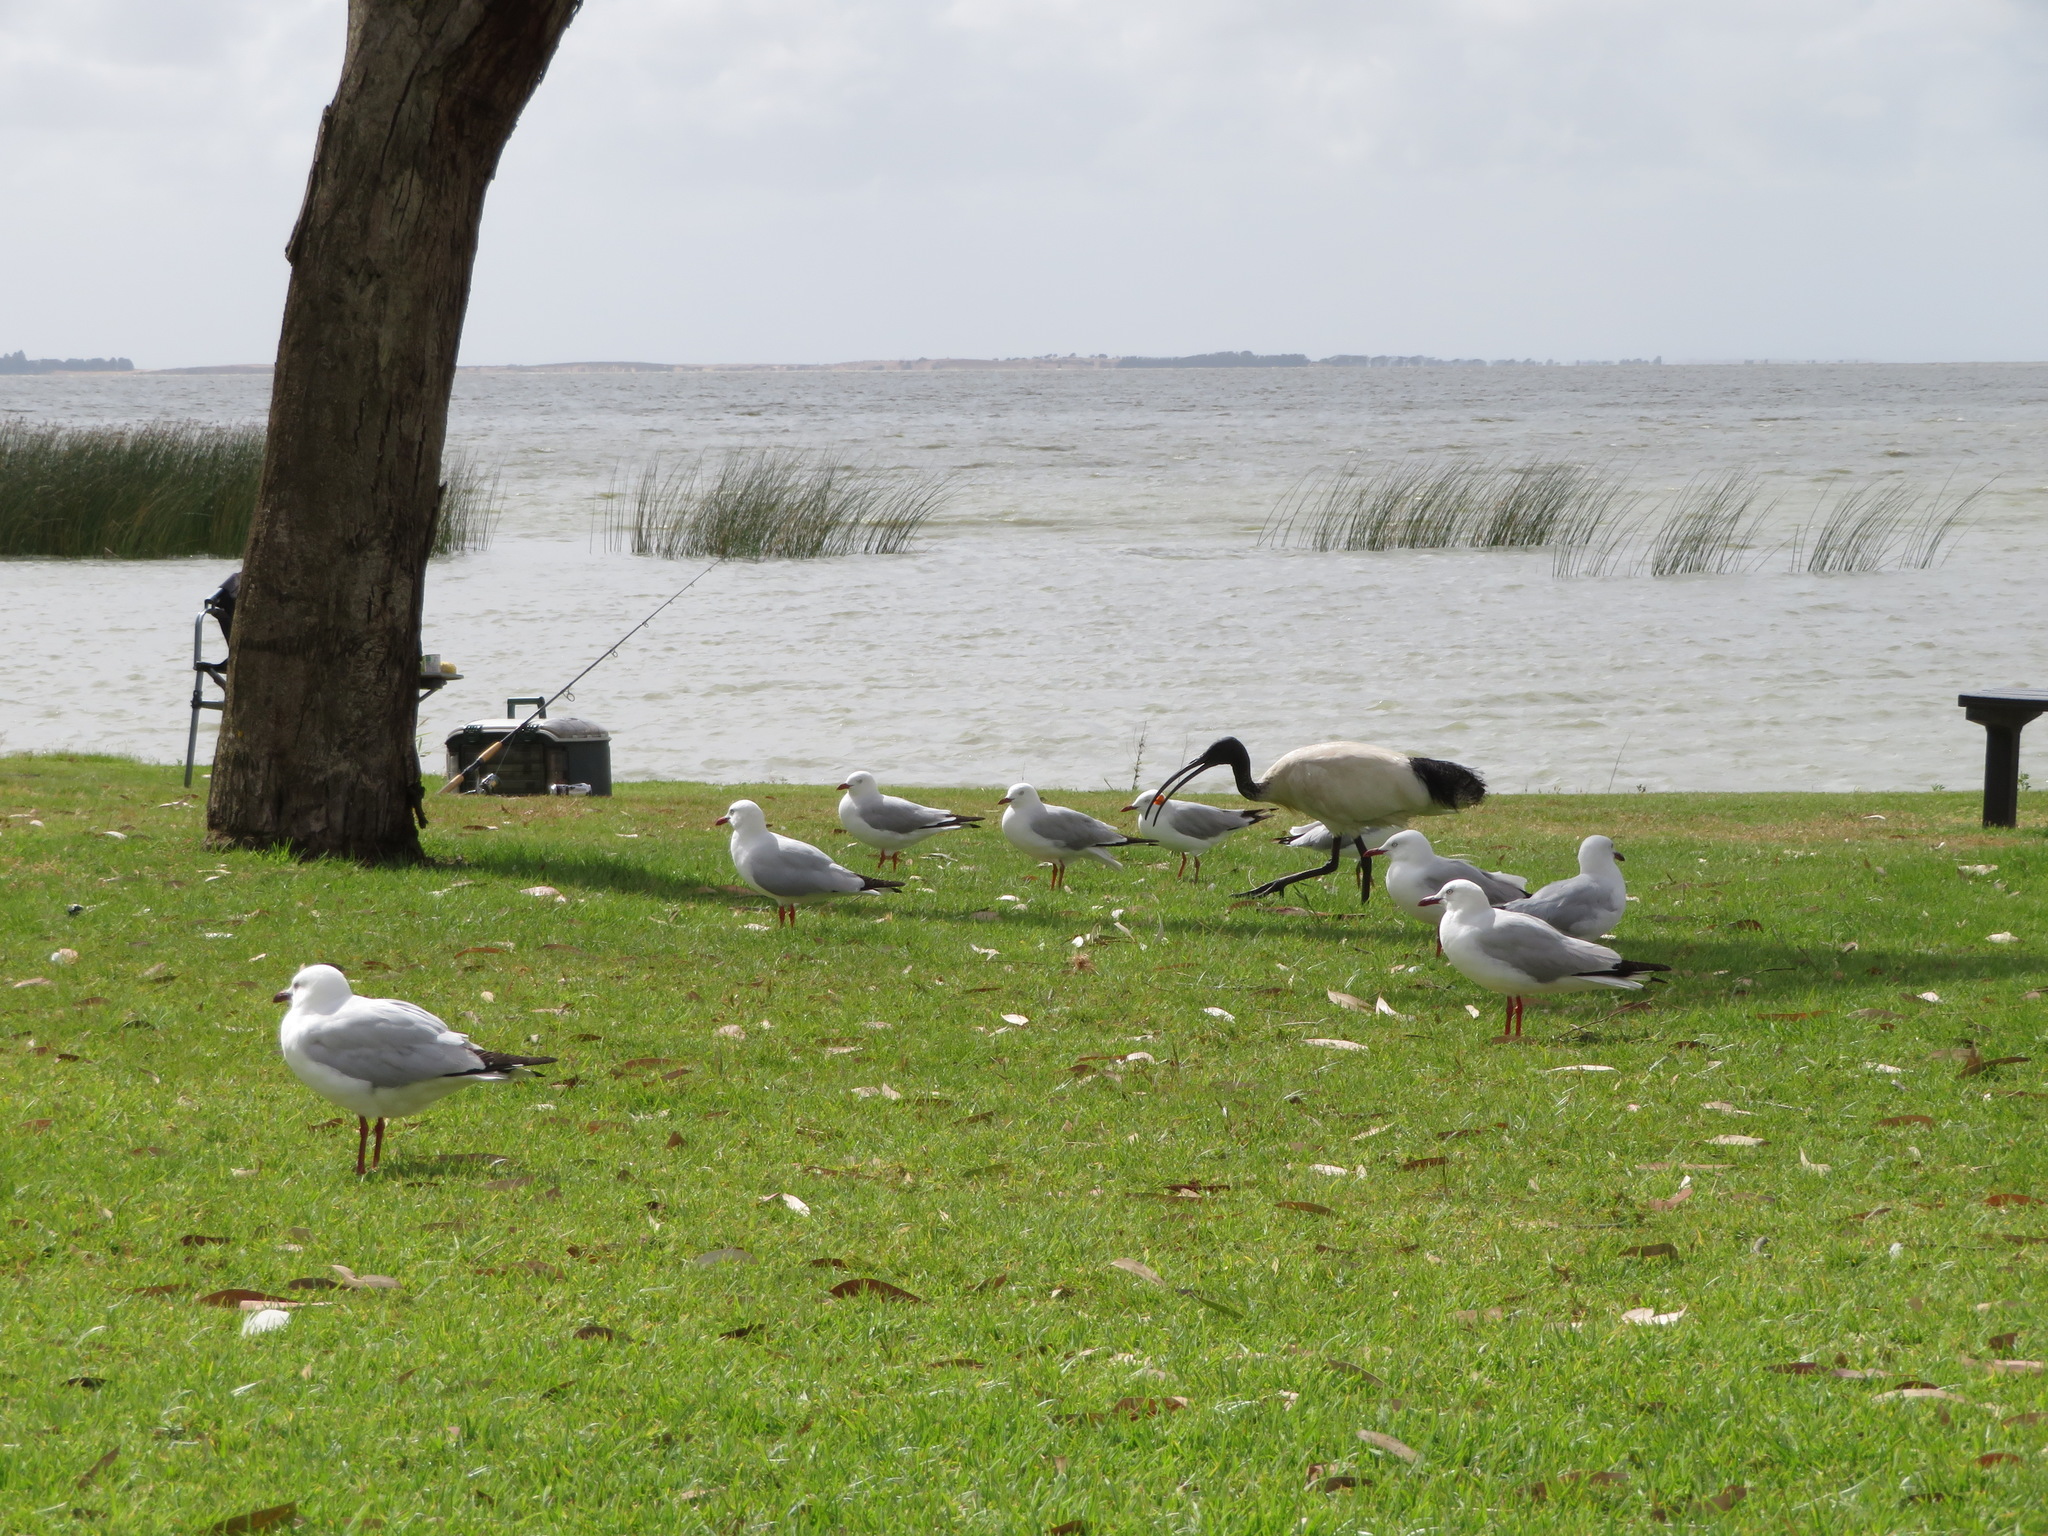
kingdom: Animalia
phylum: Chordata
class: Aves
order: Pelecaniformes
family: Threskiornithidae
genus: Threskiornis
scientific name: Threskiornis molucca
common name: Australian white ibis
